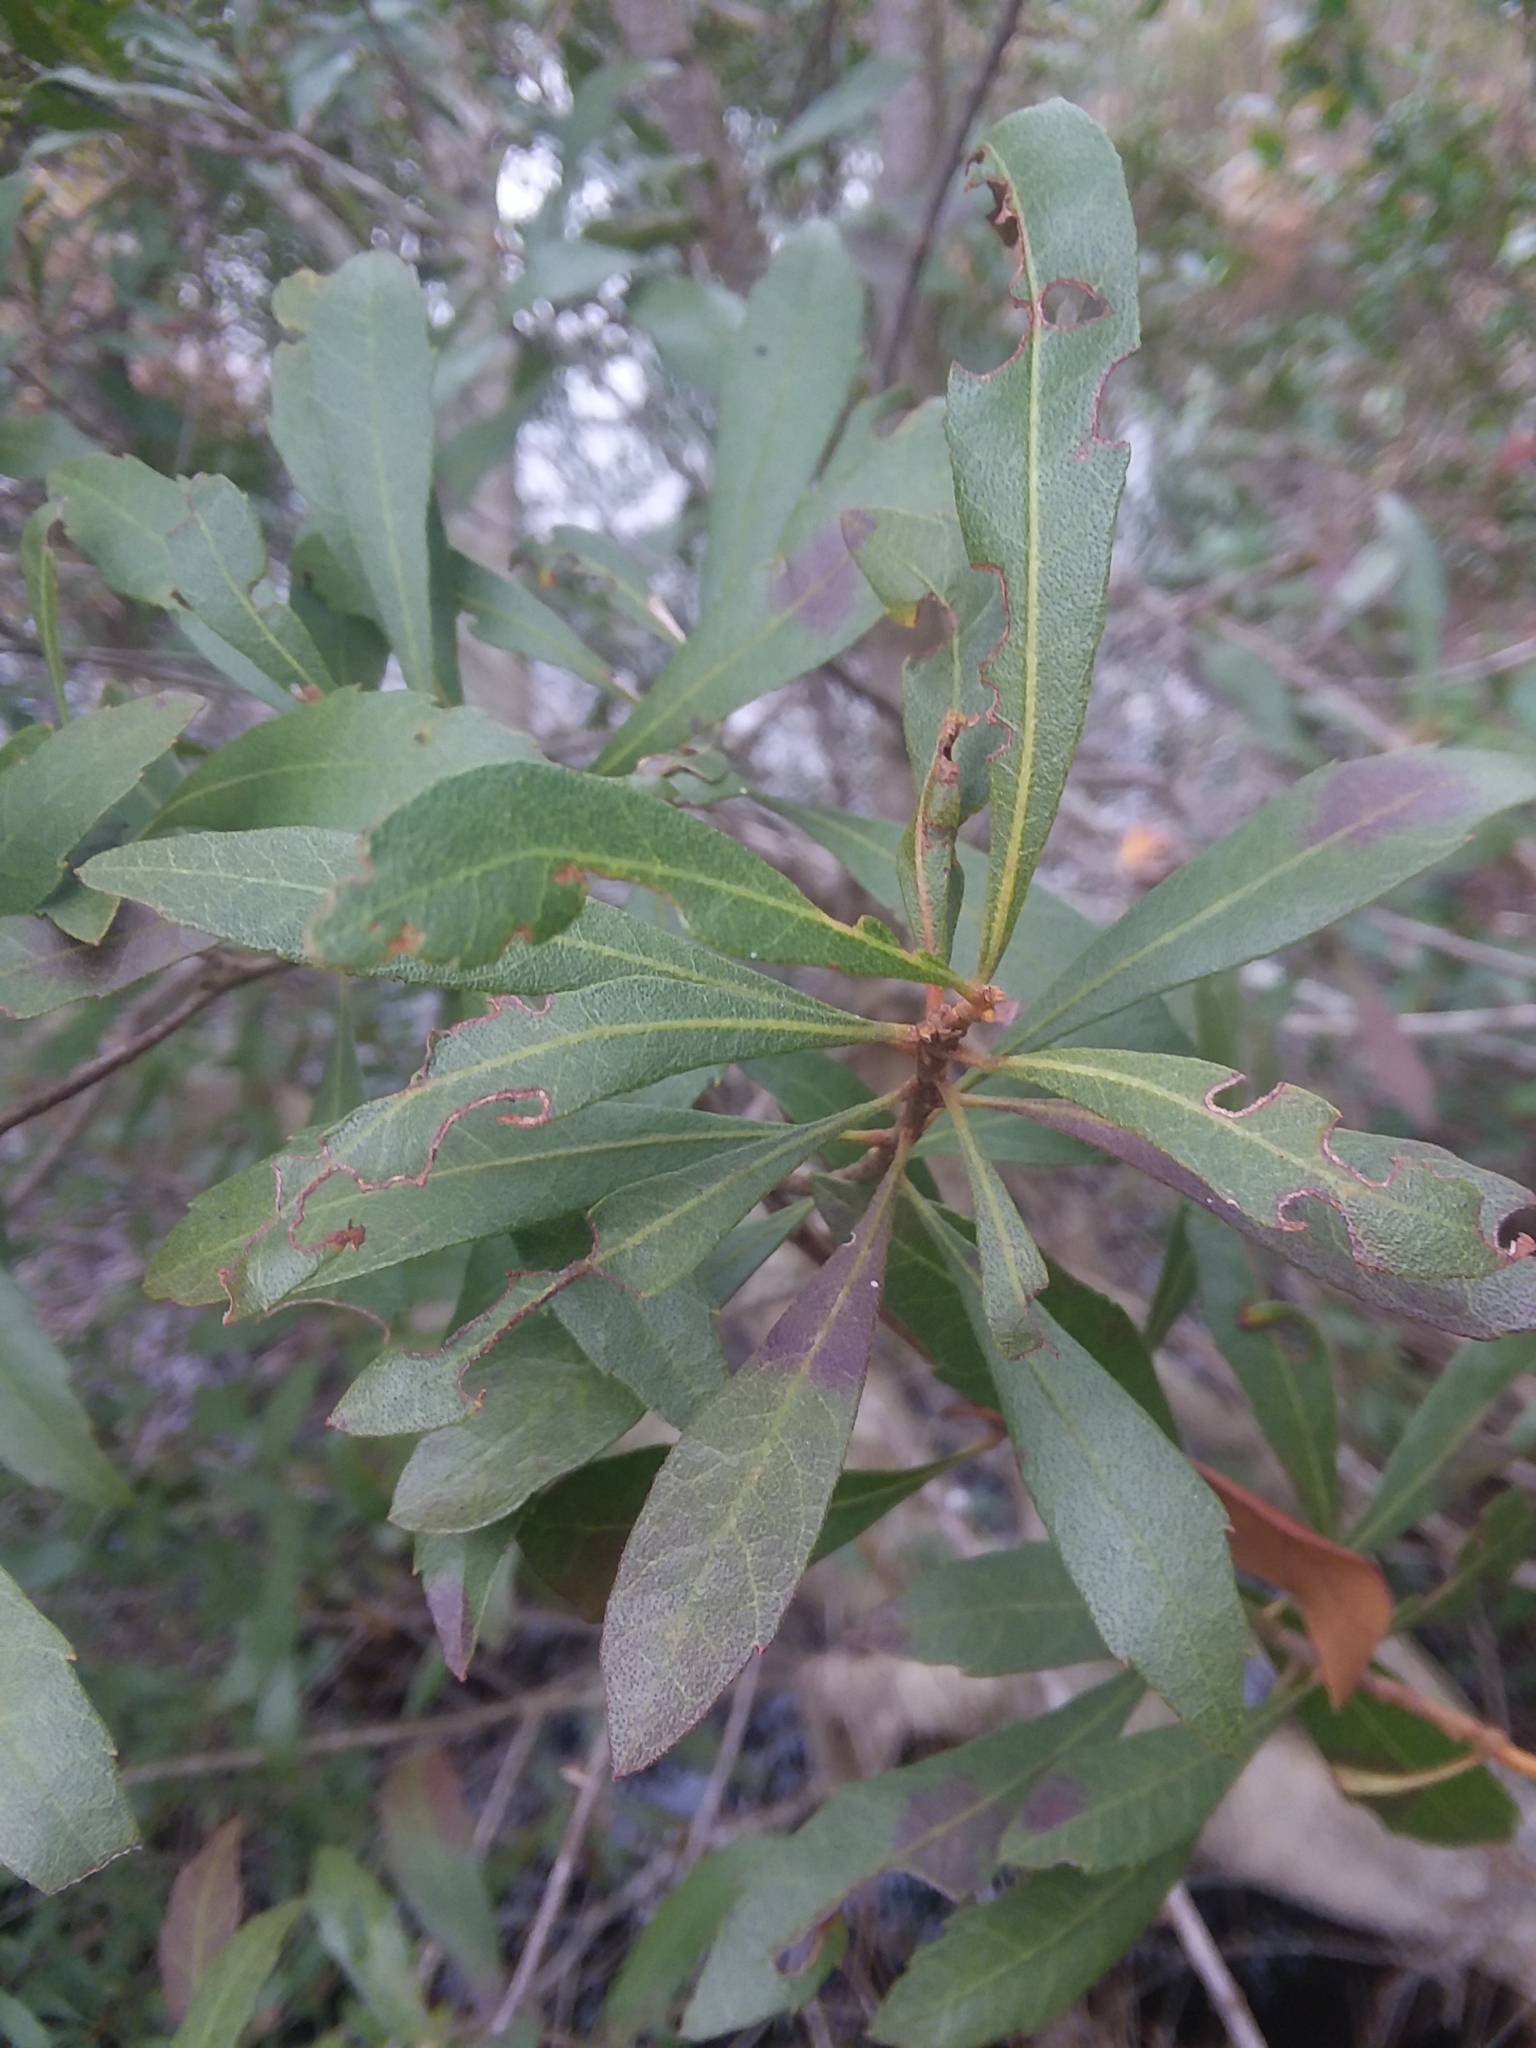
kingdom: Plantae
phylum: Tracheophyta
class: Magnoliopsida
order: Fagales
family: Myricaceae
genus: Morella
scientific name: Morella cerifera
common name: Wax myrtle
